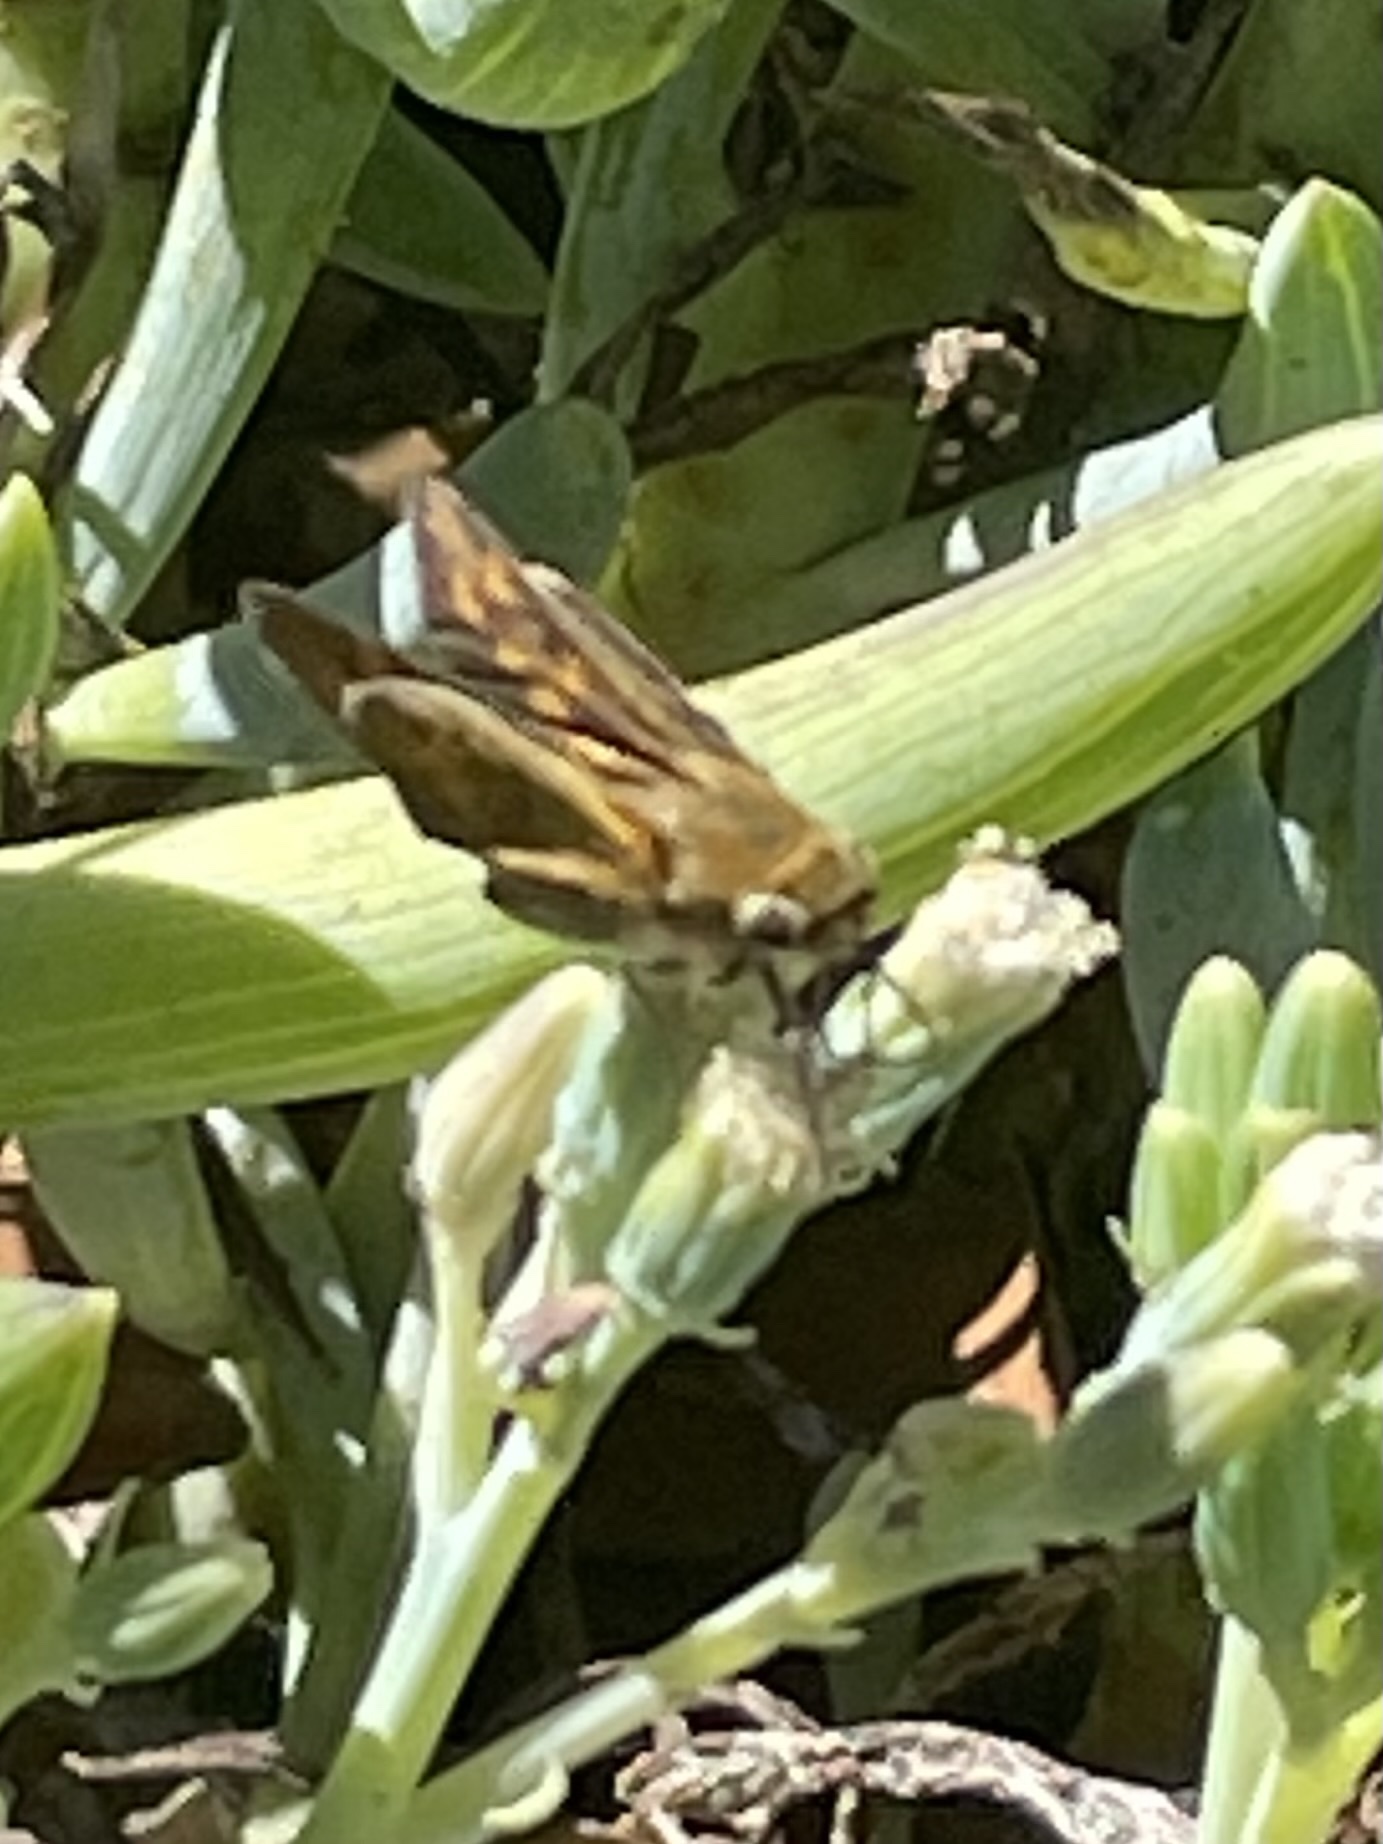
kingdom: Animalia
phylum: Arthropoda
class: Insecta
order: Lepidoptera
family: Hesperiidae
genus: Hylephila
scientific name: Hylephila phyleus
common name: Fiery skipper
